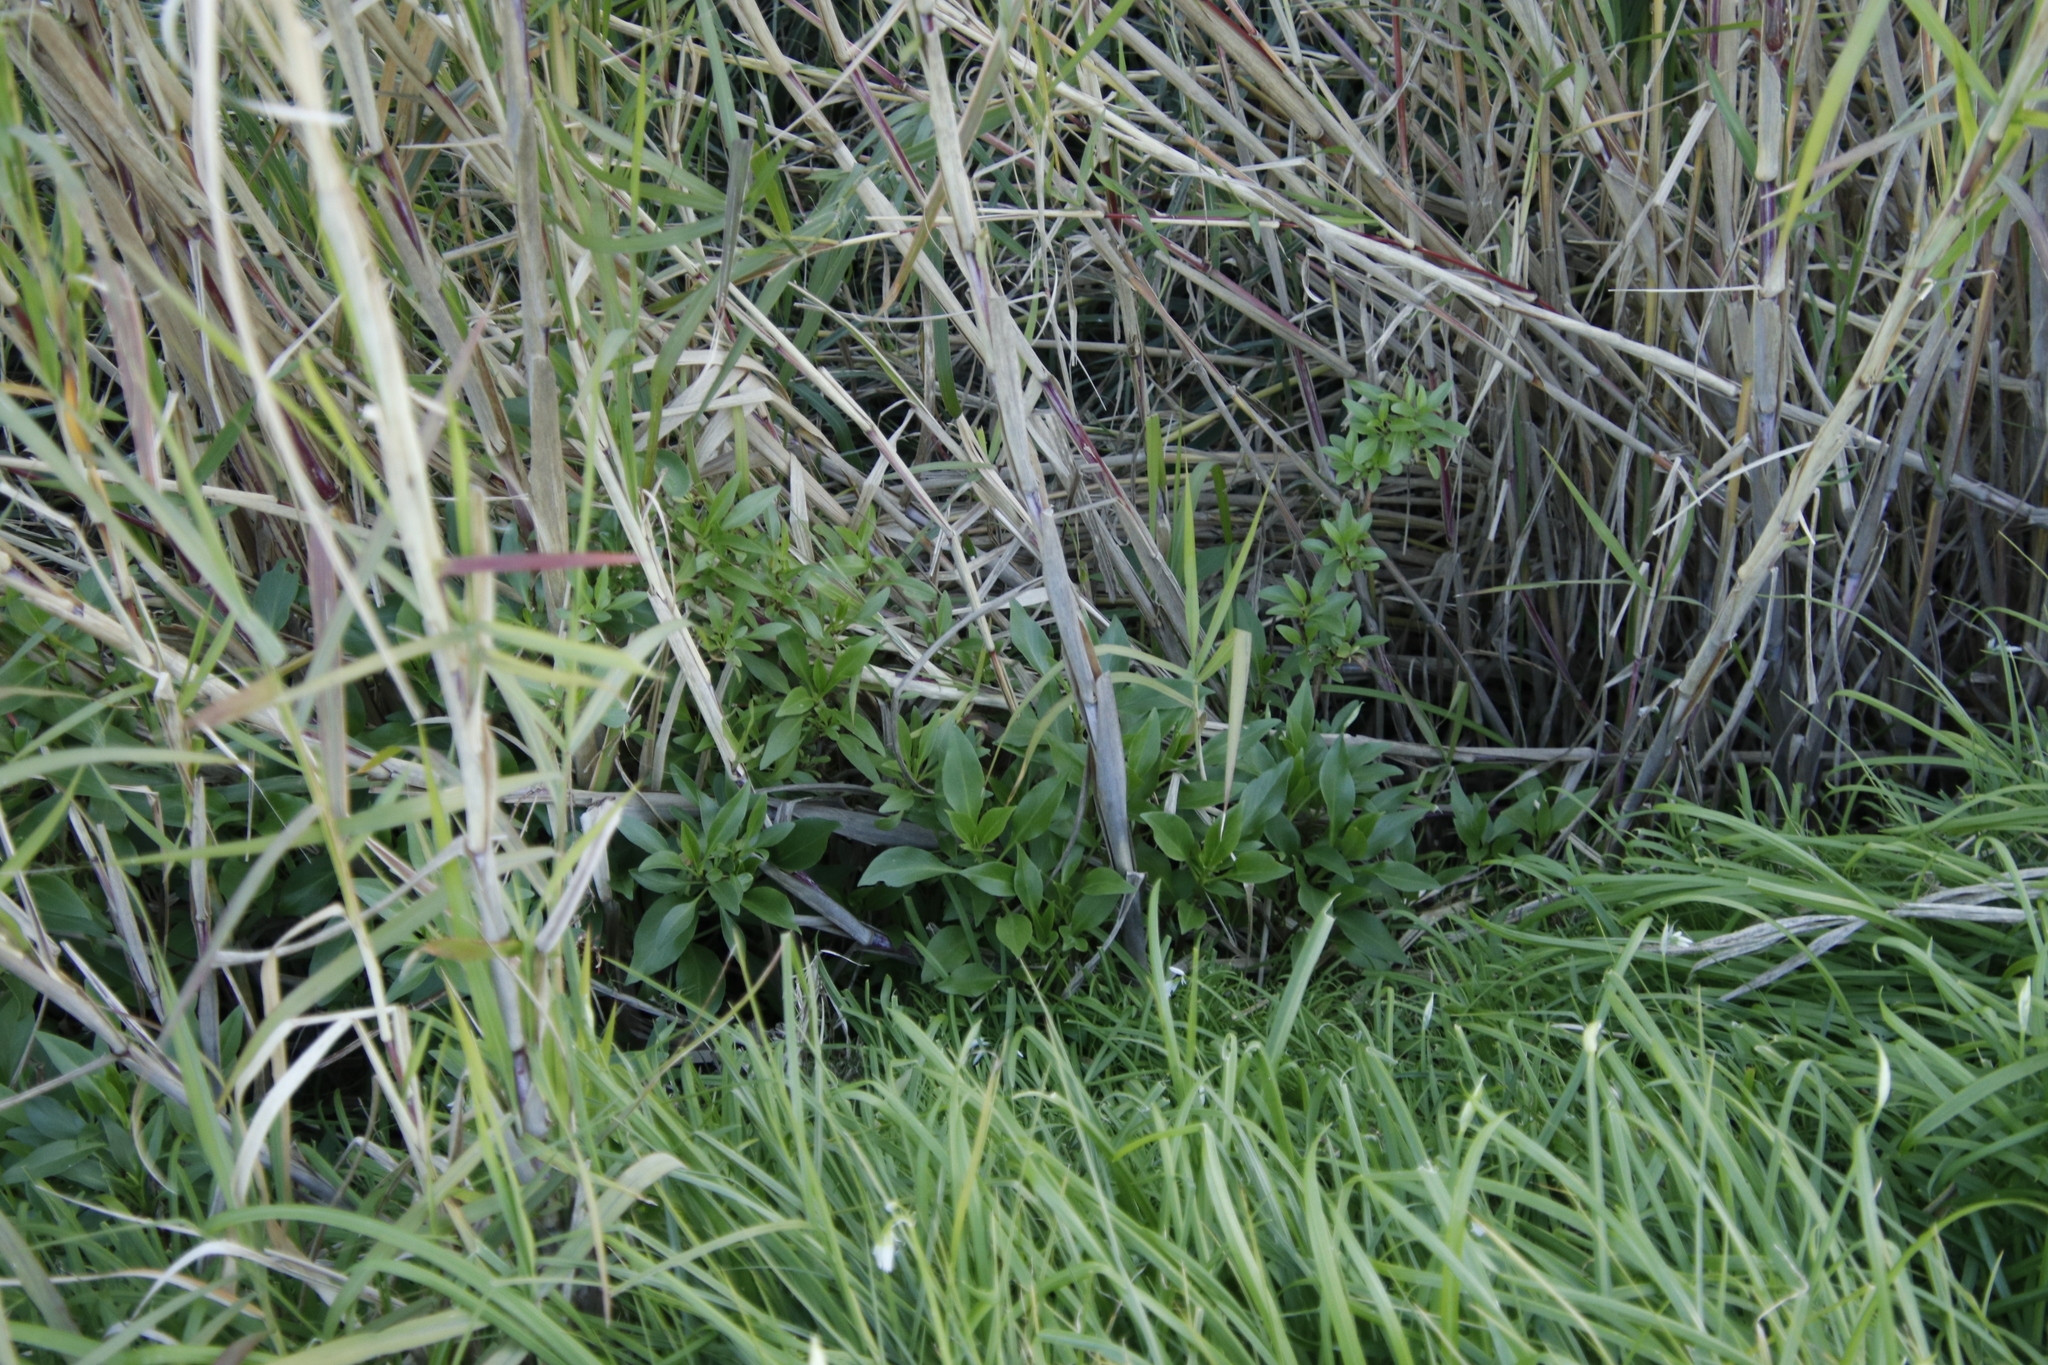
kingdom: Plantae
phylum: Tracheophyta
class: Magnoliopsida
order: Dipsacales
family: Caprifoliaceae
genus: Centranthus
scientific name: Centranthus ruber
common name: Red valerian
